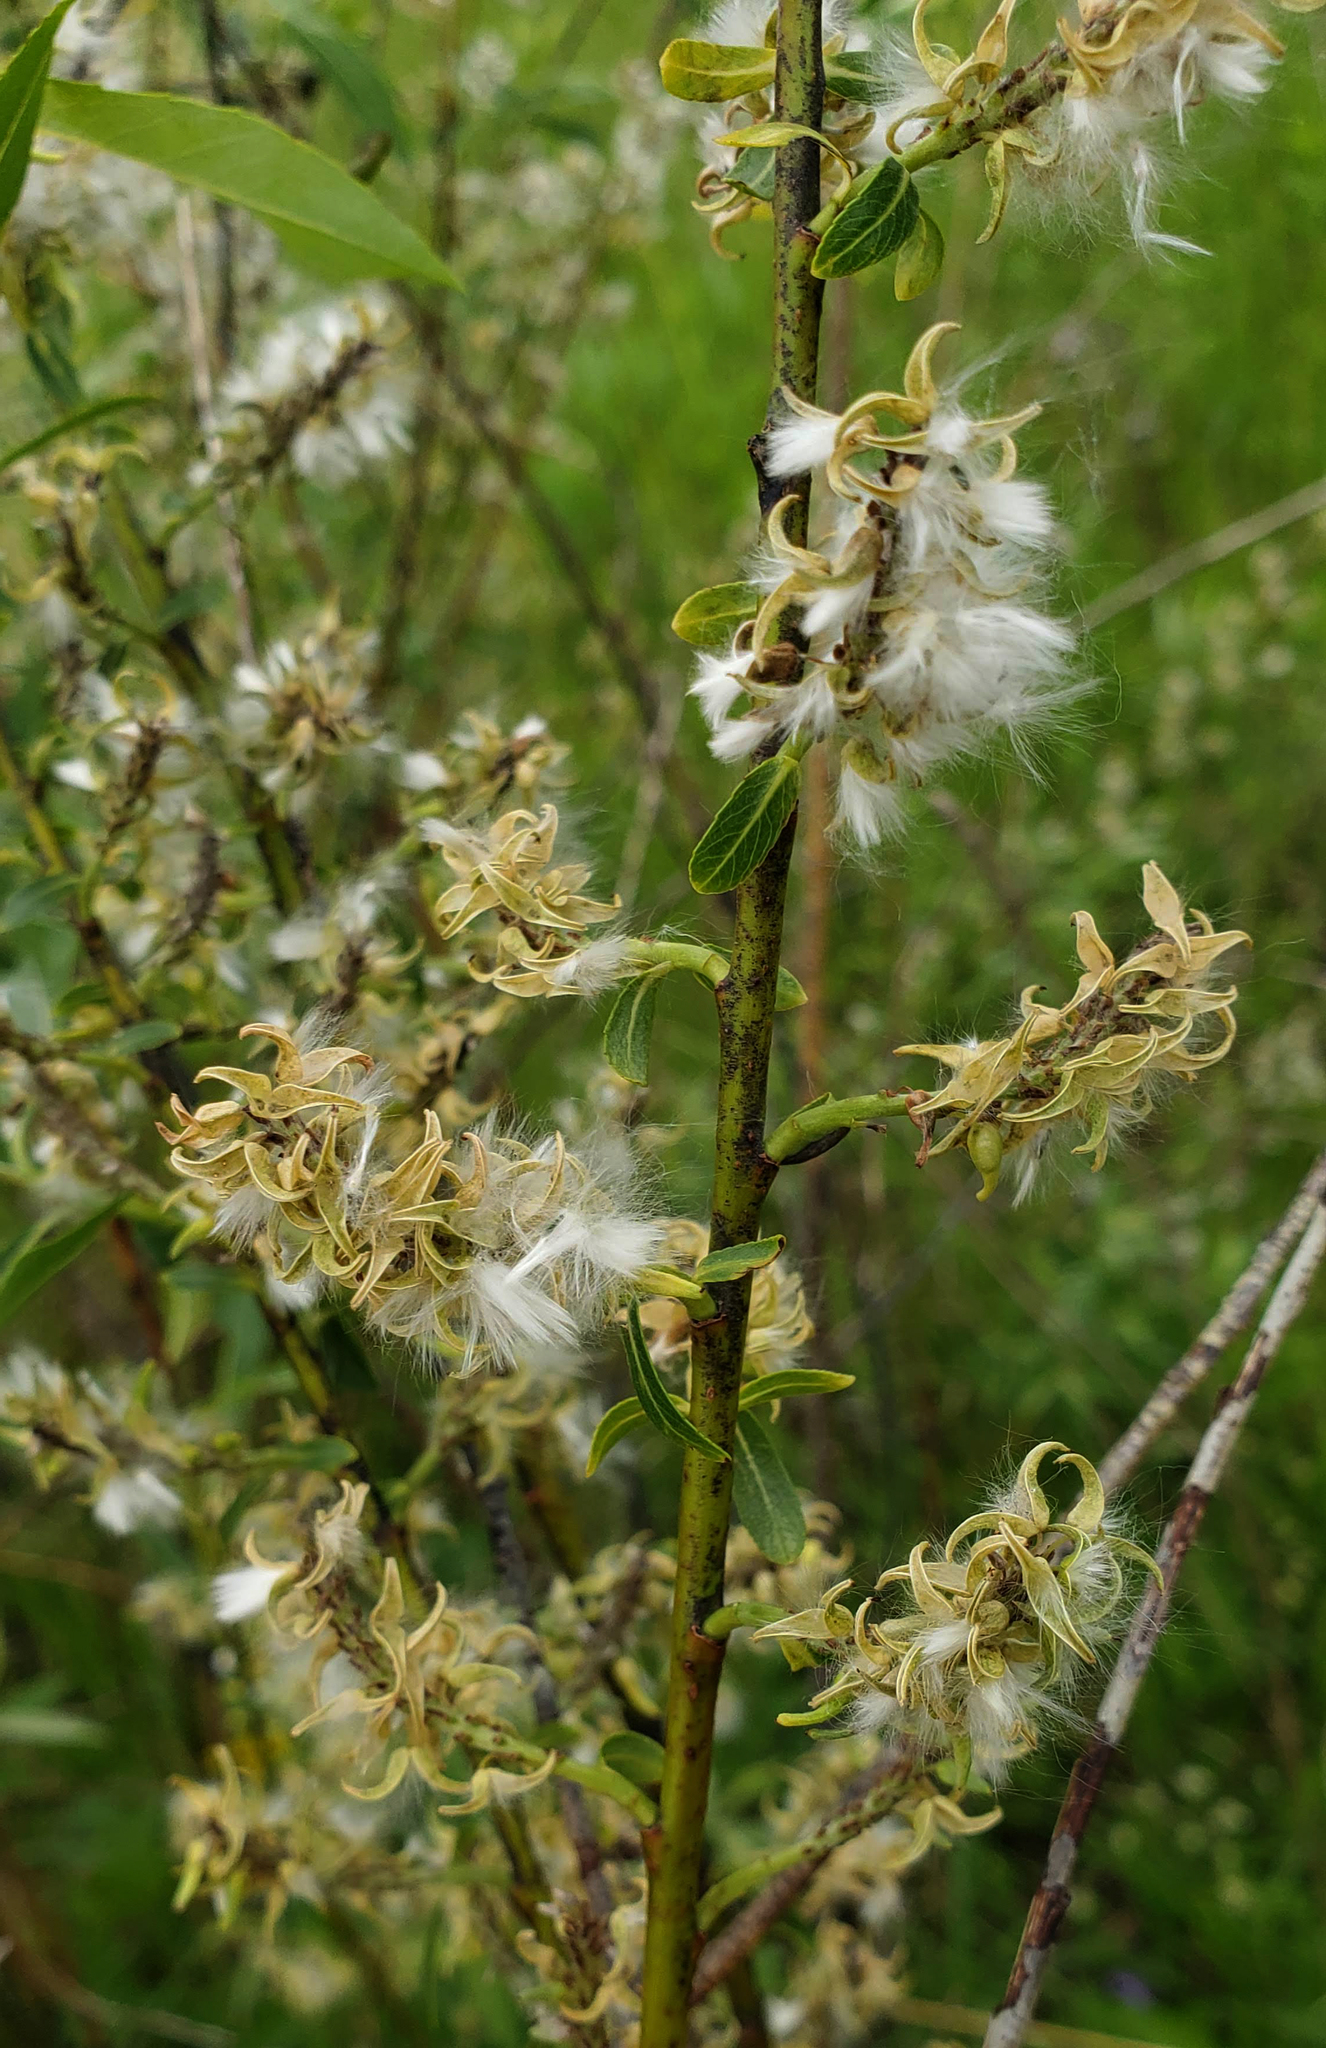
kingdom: Plantae
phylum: Tracheophyta
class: Magnoliopsida
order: Malpighiales
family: Salicaceae
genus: Salix
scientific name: Salix petiolaris
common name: Slender willow
